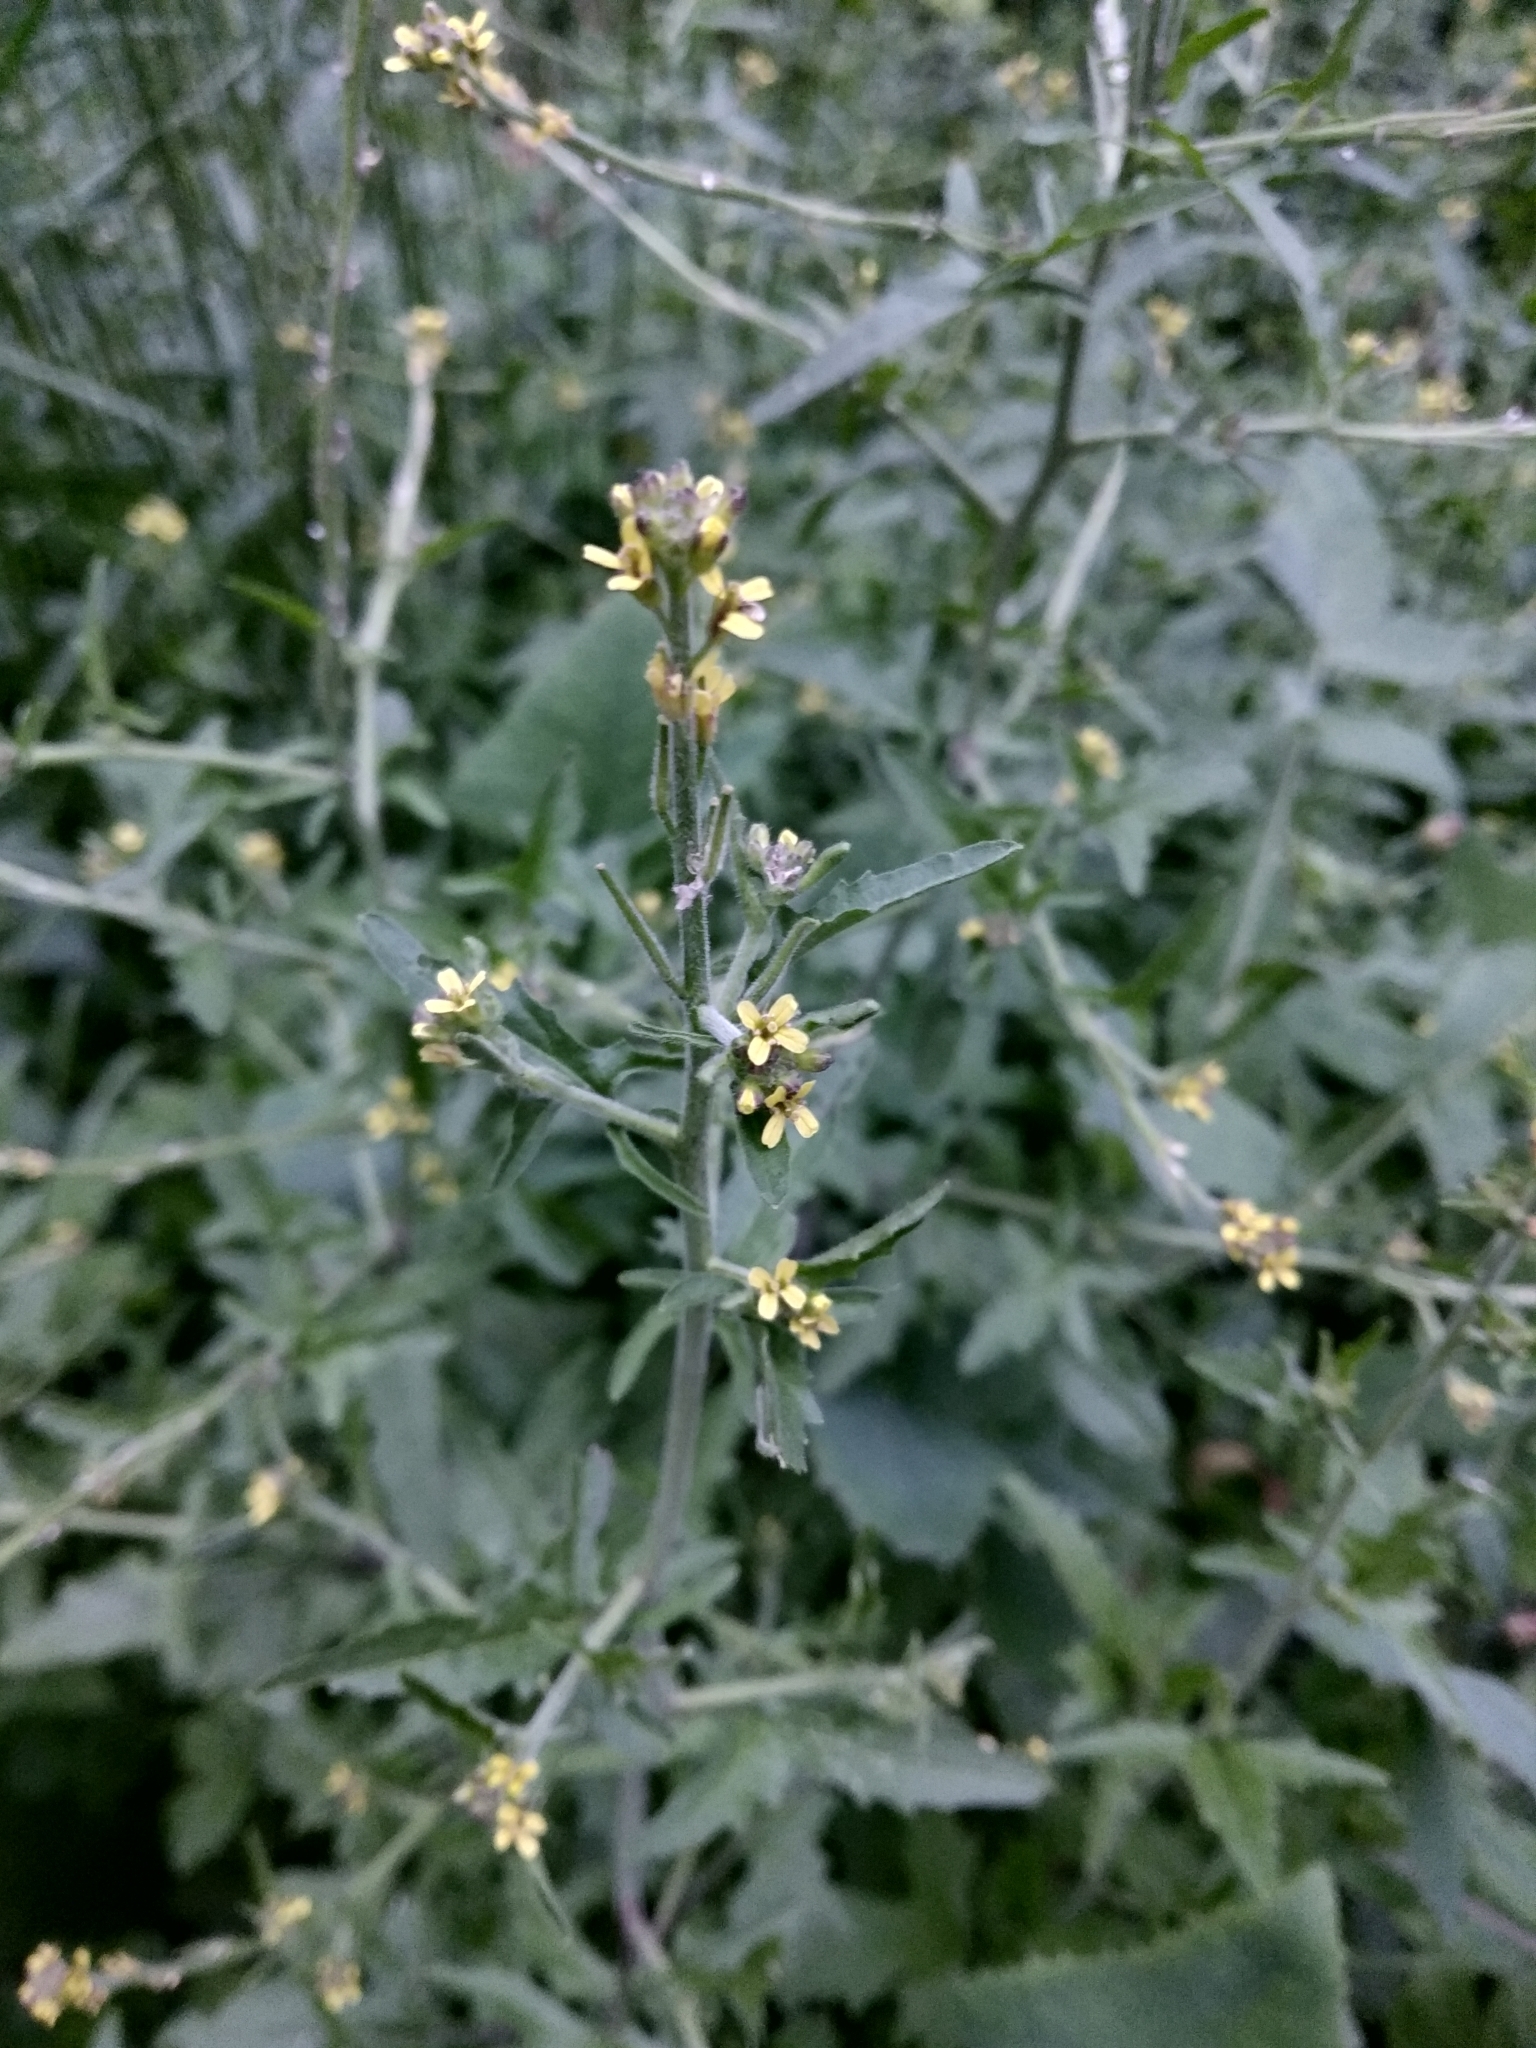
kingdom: Plantae
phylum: Tracheophyta
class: Magnoliopsida
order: Brassicales
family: Brassicaceae
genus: Sisymbrium
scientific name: Sisymbrium officinale
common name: Hedge mustard
